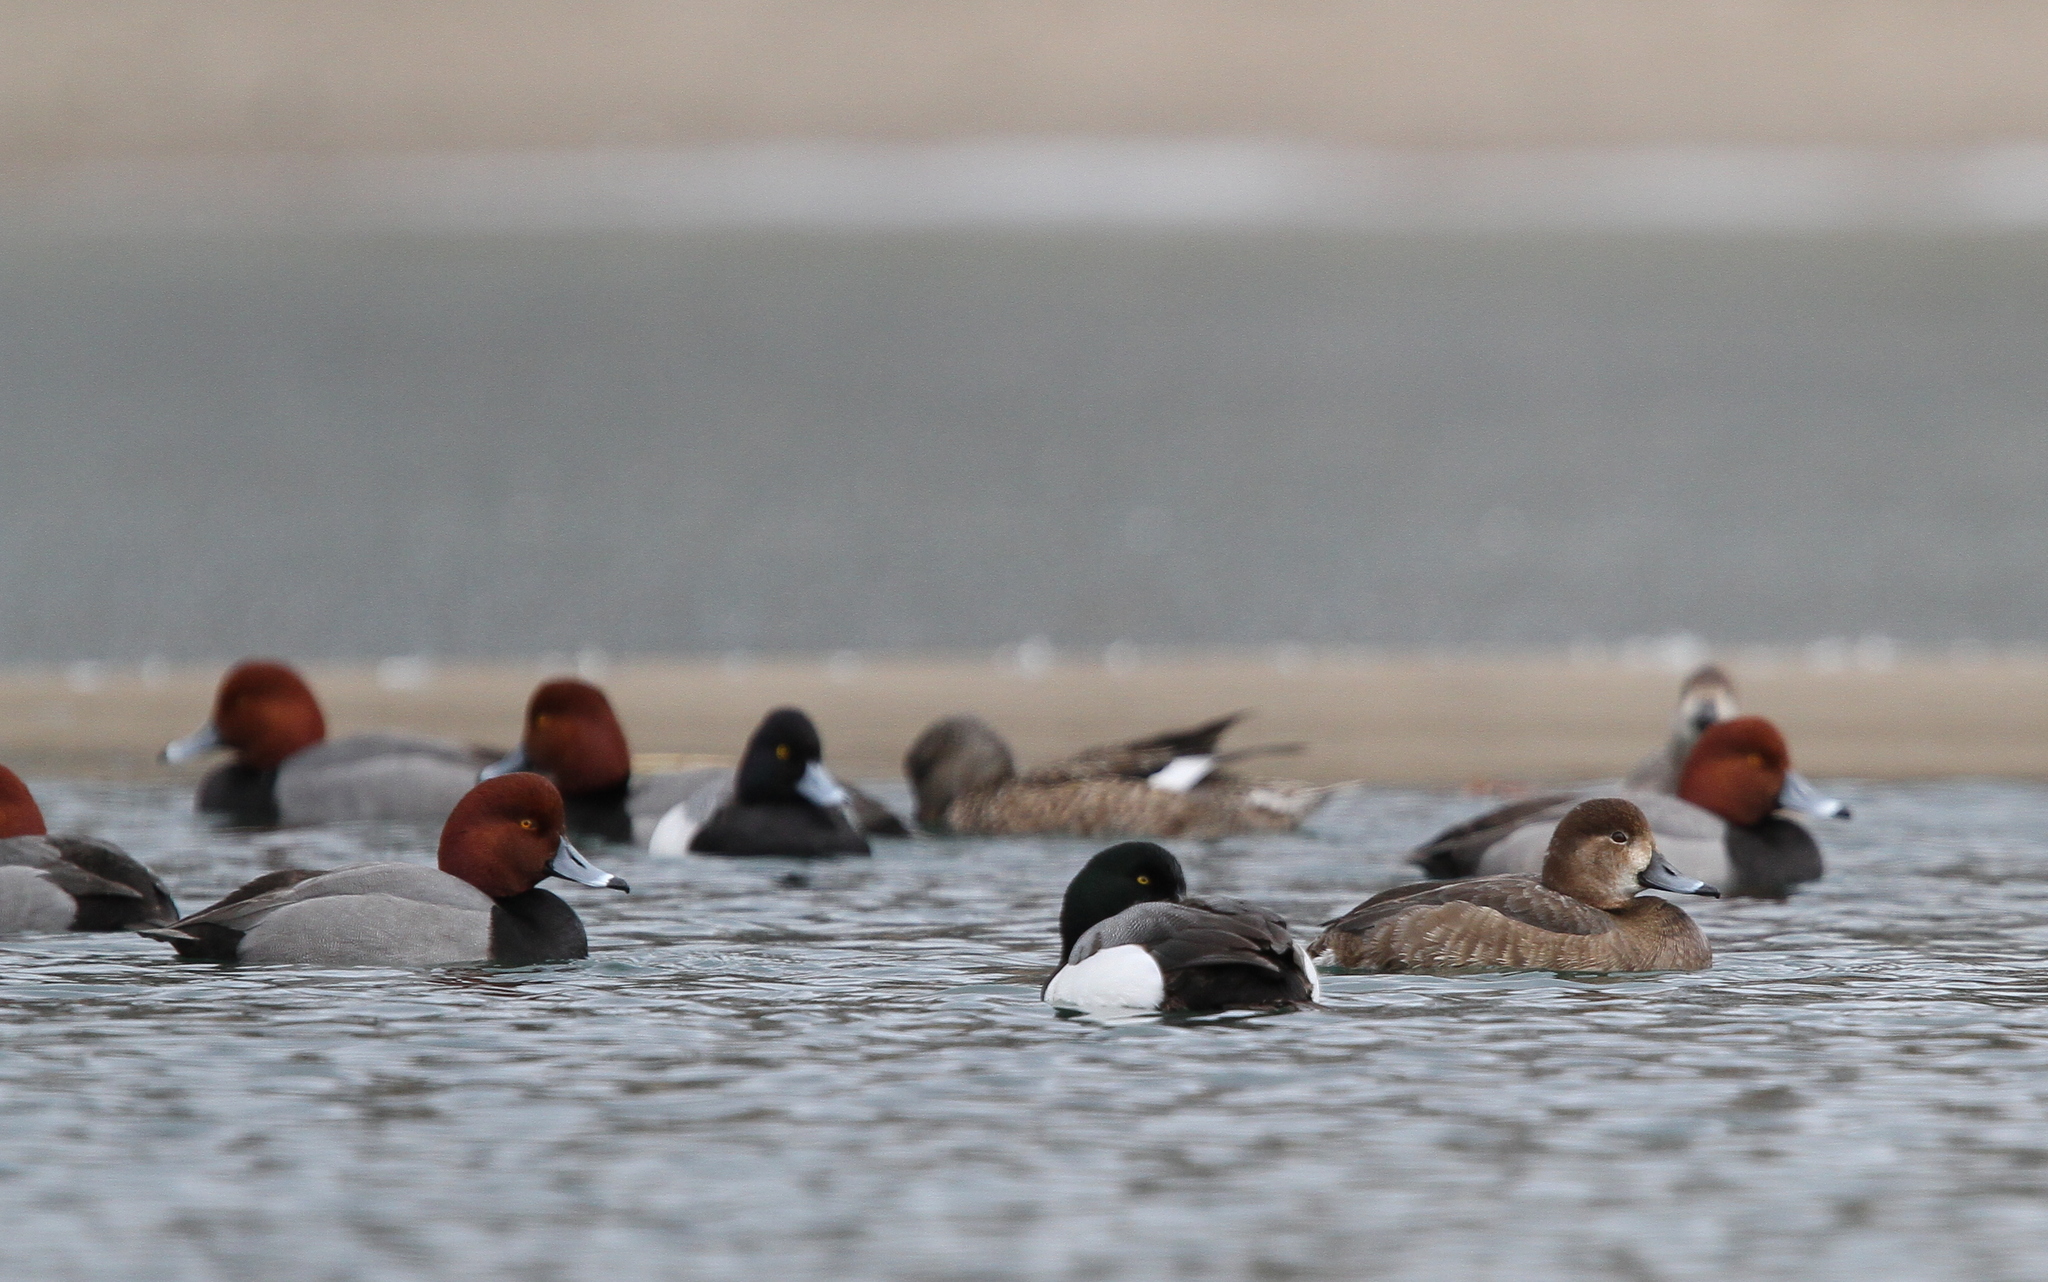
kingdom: Animalia
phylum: Chordata
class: Aves
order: Anseriformes
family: Anatidae
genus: Aythya
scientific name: Aythya americana
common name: Redhead
